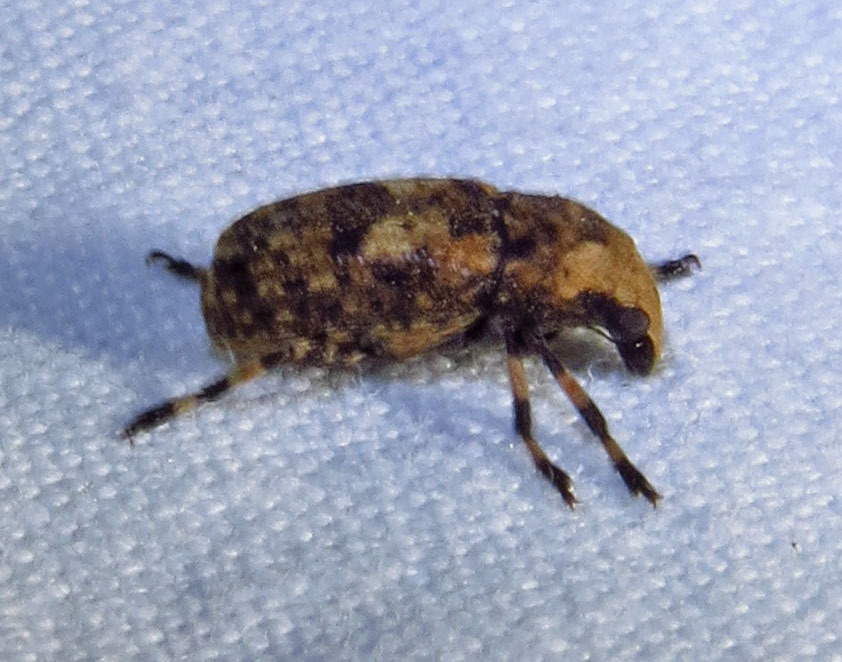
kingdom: Animalia
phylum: Arthropoda
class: Insecta
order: Coleoptera
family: Anthribidae
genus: Euparius
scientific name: Euparius marmoreus
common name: Marbled fungus weevil
